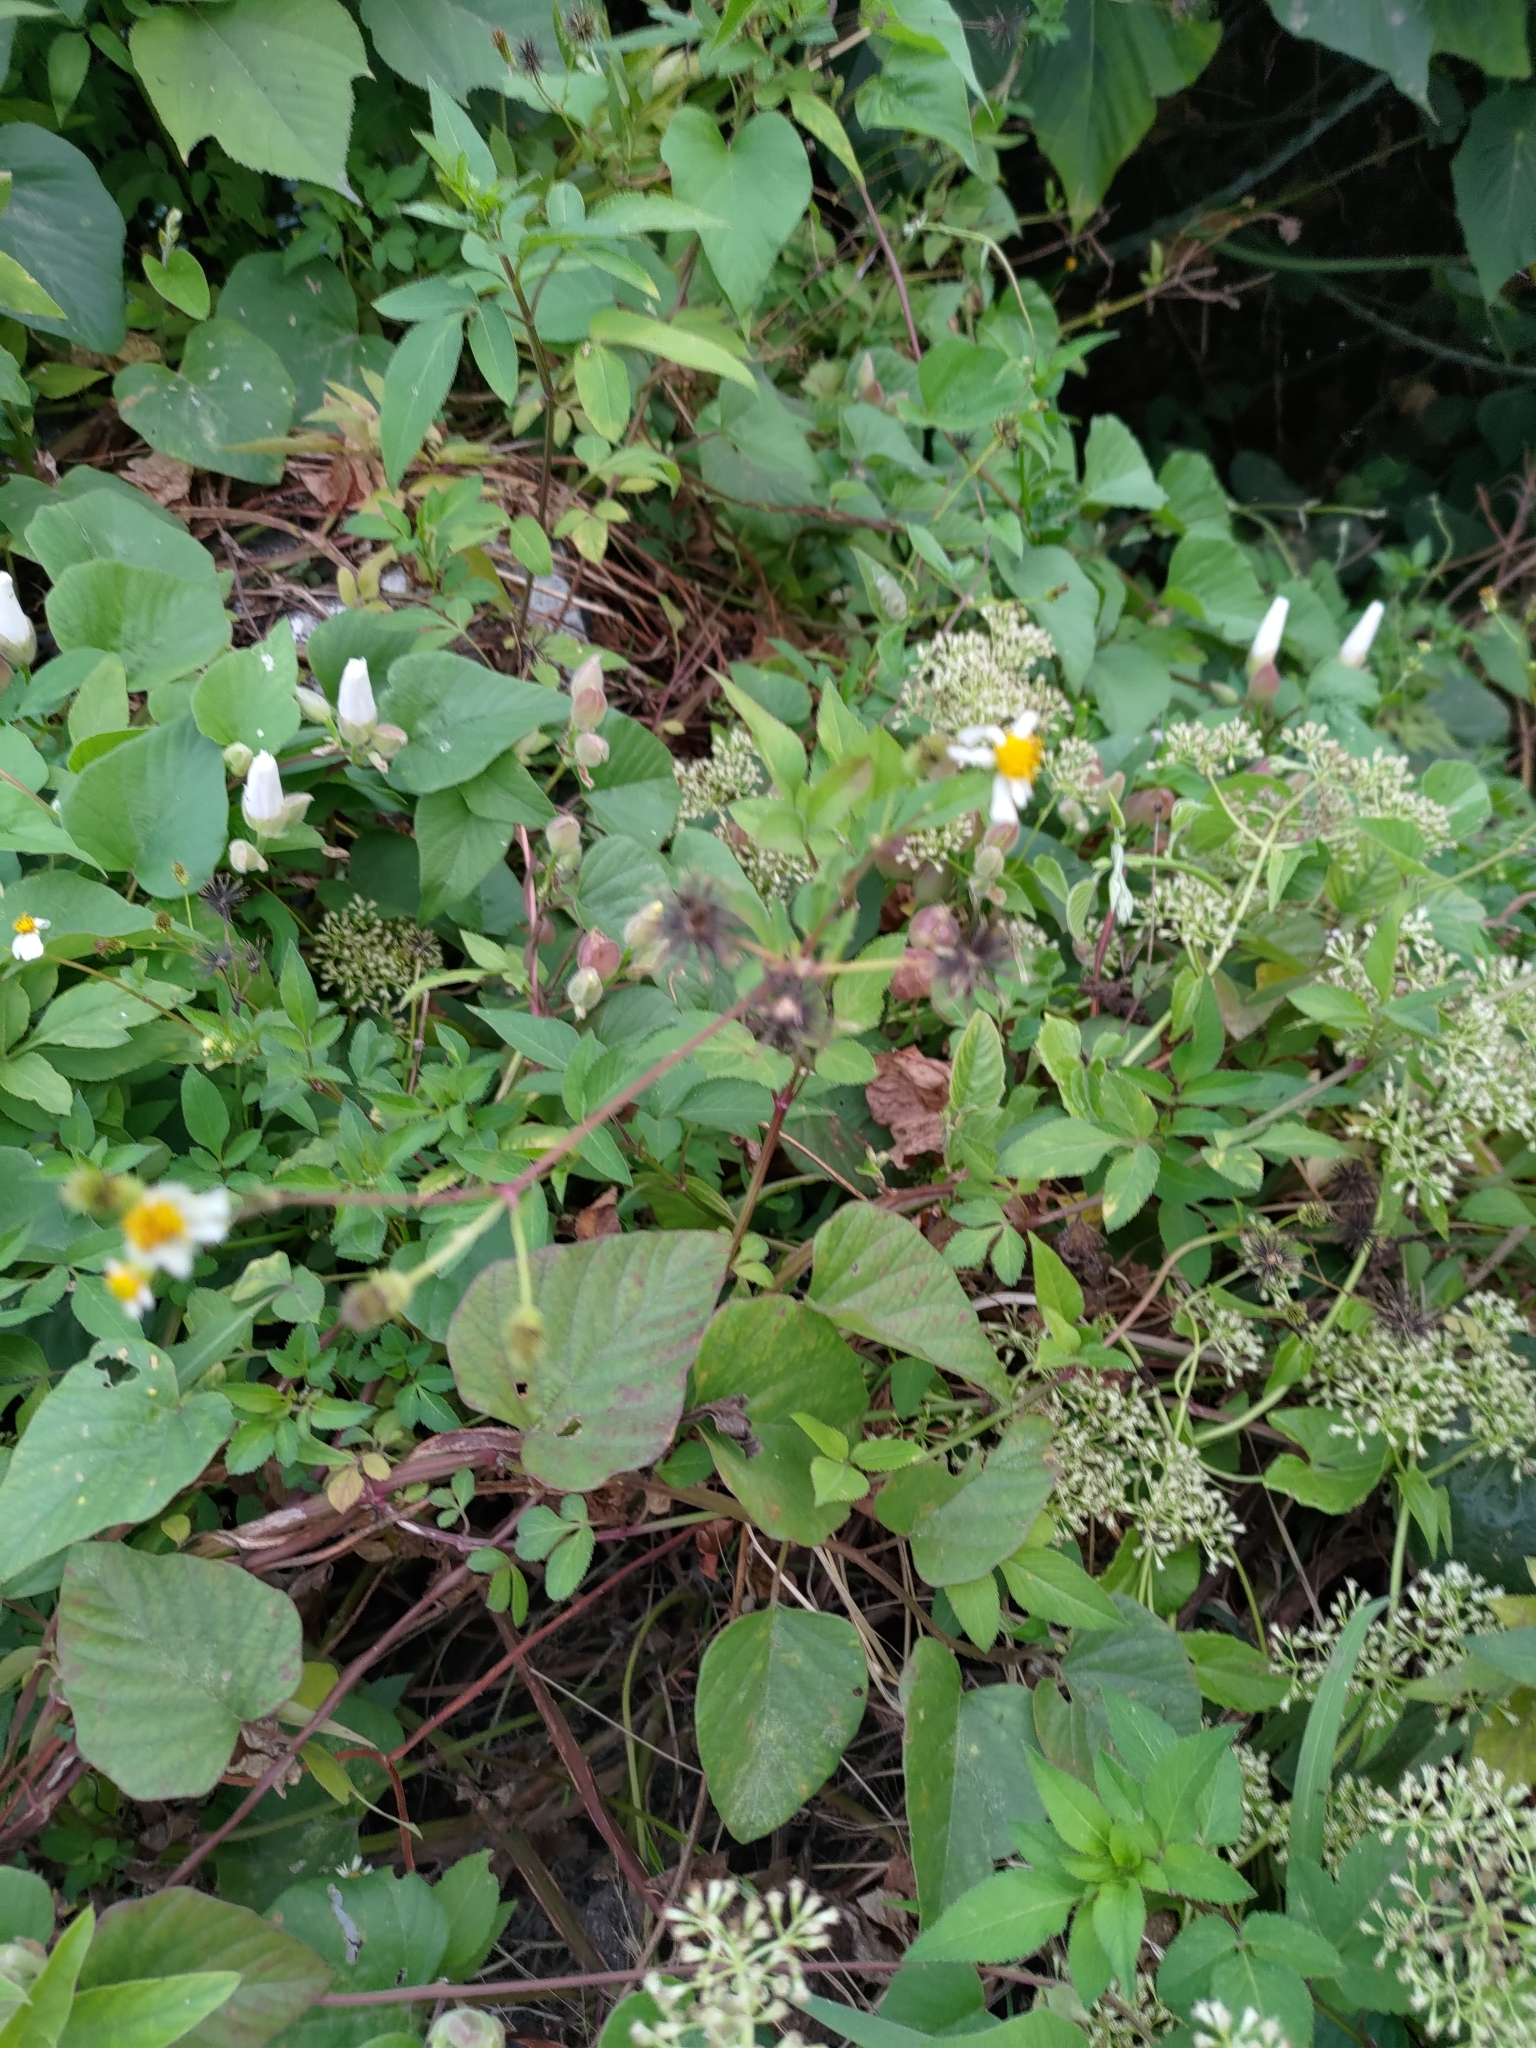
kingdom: Plantae
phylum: Tracheophyta
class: Magnoliopsida
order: Asterales
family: Asteraceae
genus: Bidens
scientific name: Bidens alba
